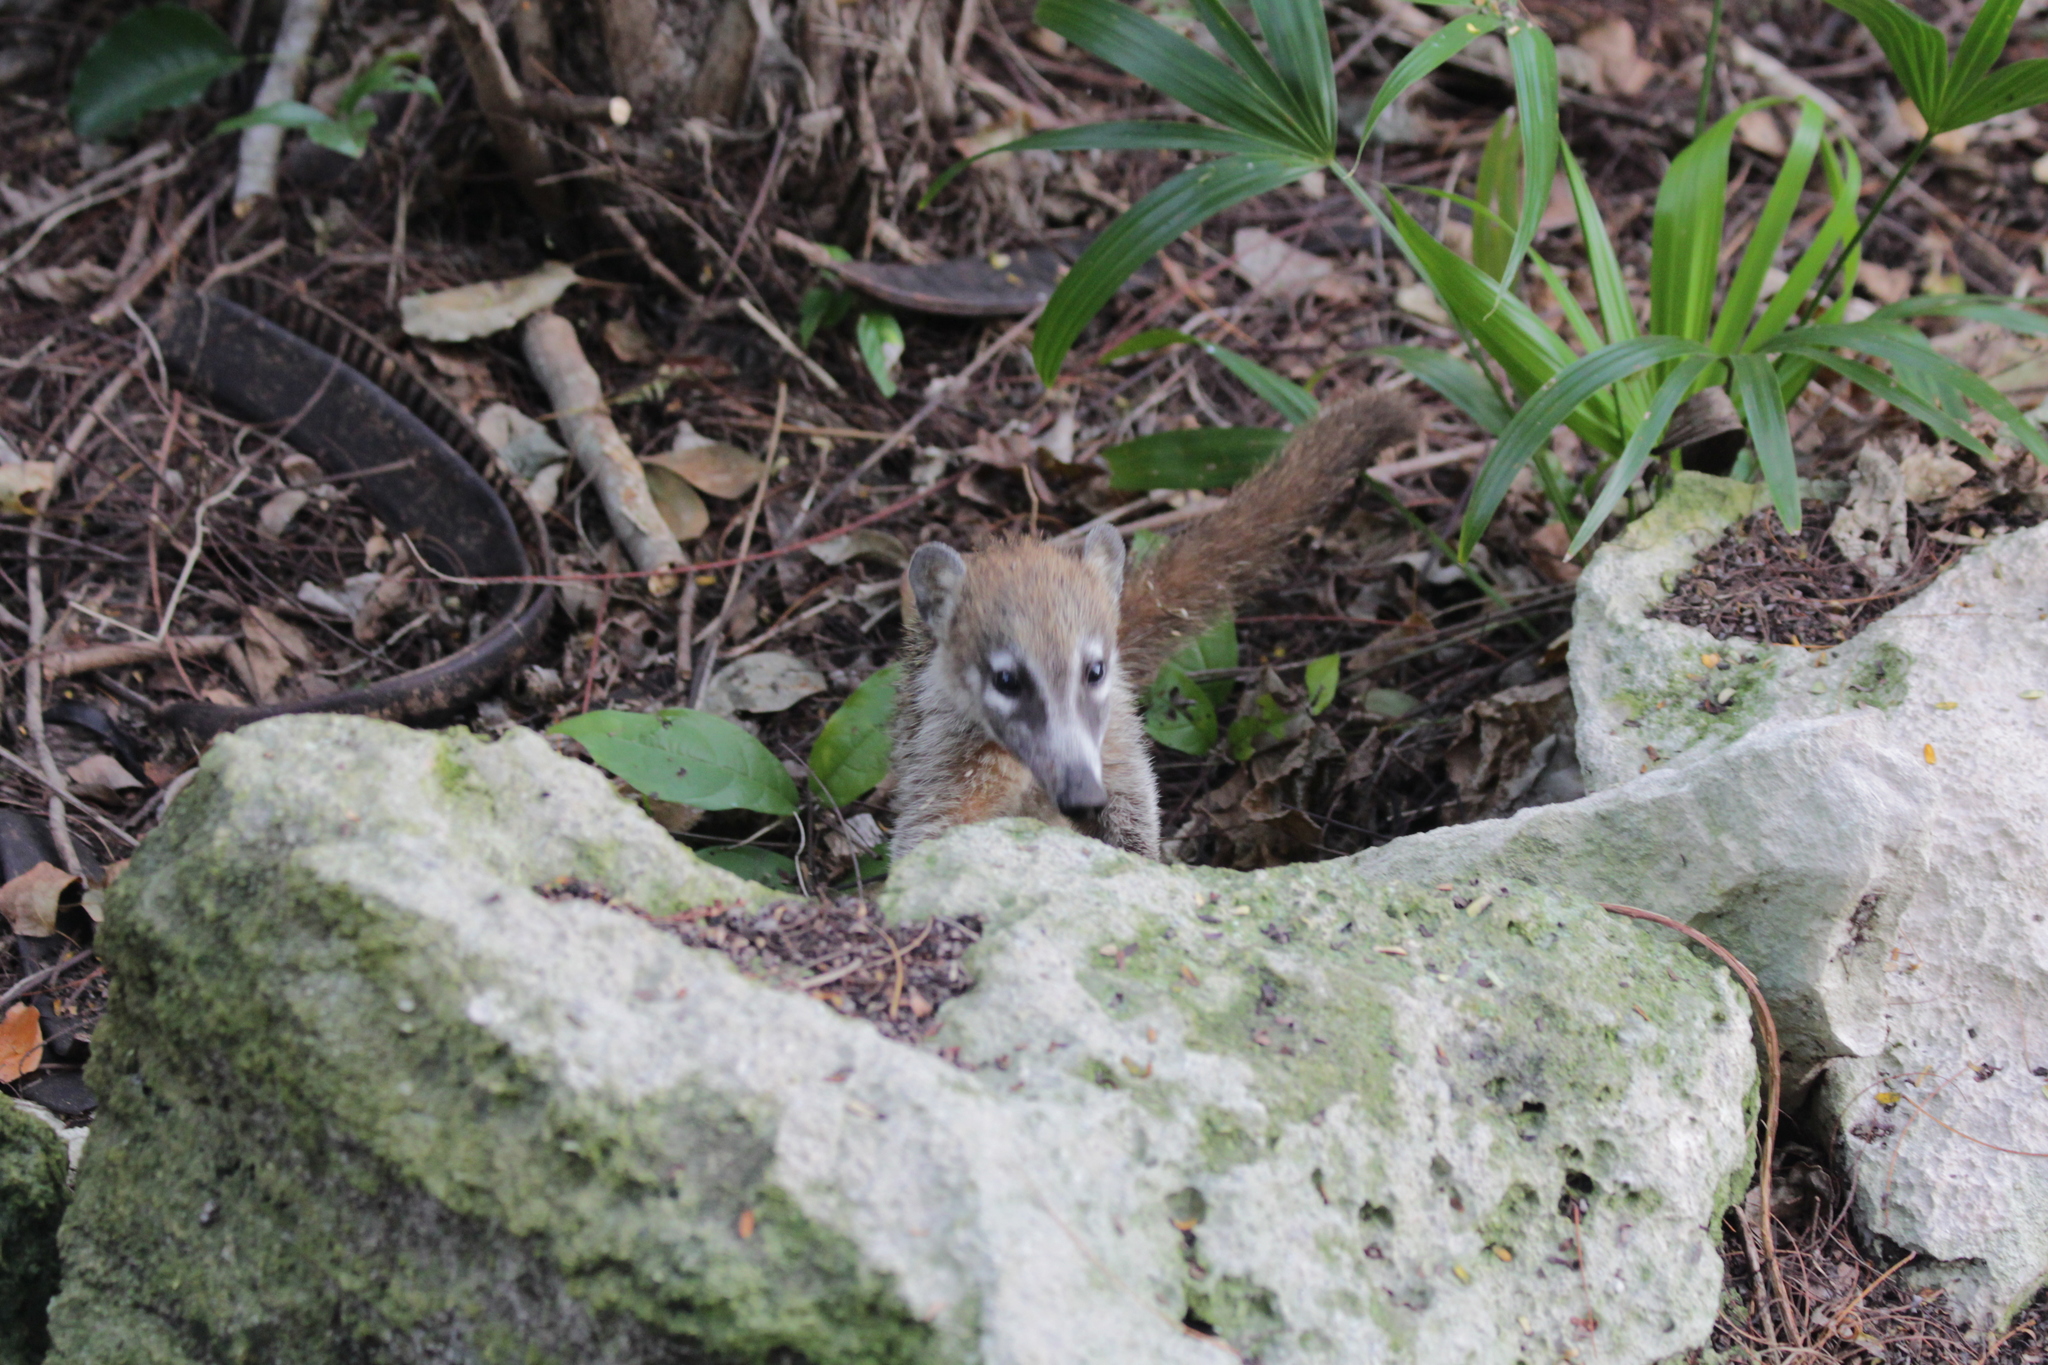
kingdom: Animalia
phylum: Chordata
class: Mammalia
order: Carnivora
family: Procyonidae
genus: Nasua
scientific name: Nasua narica
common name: White-nosed coati
